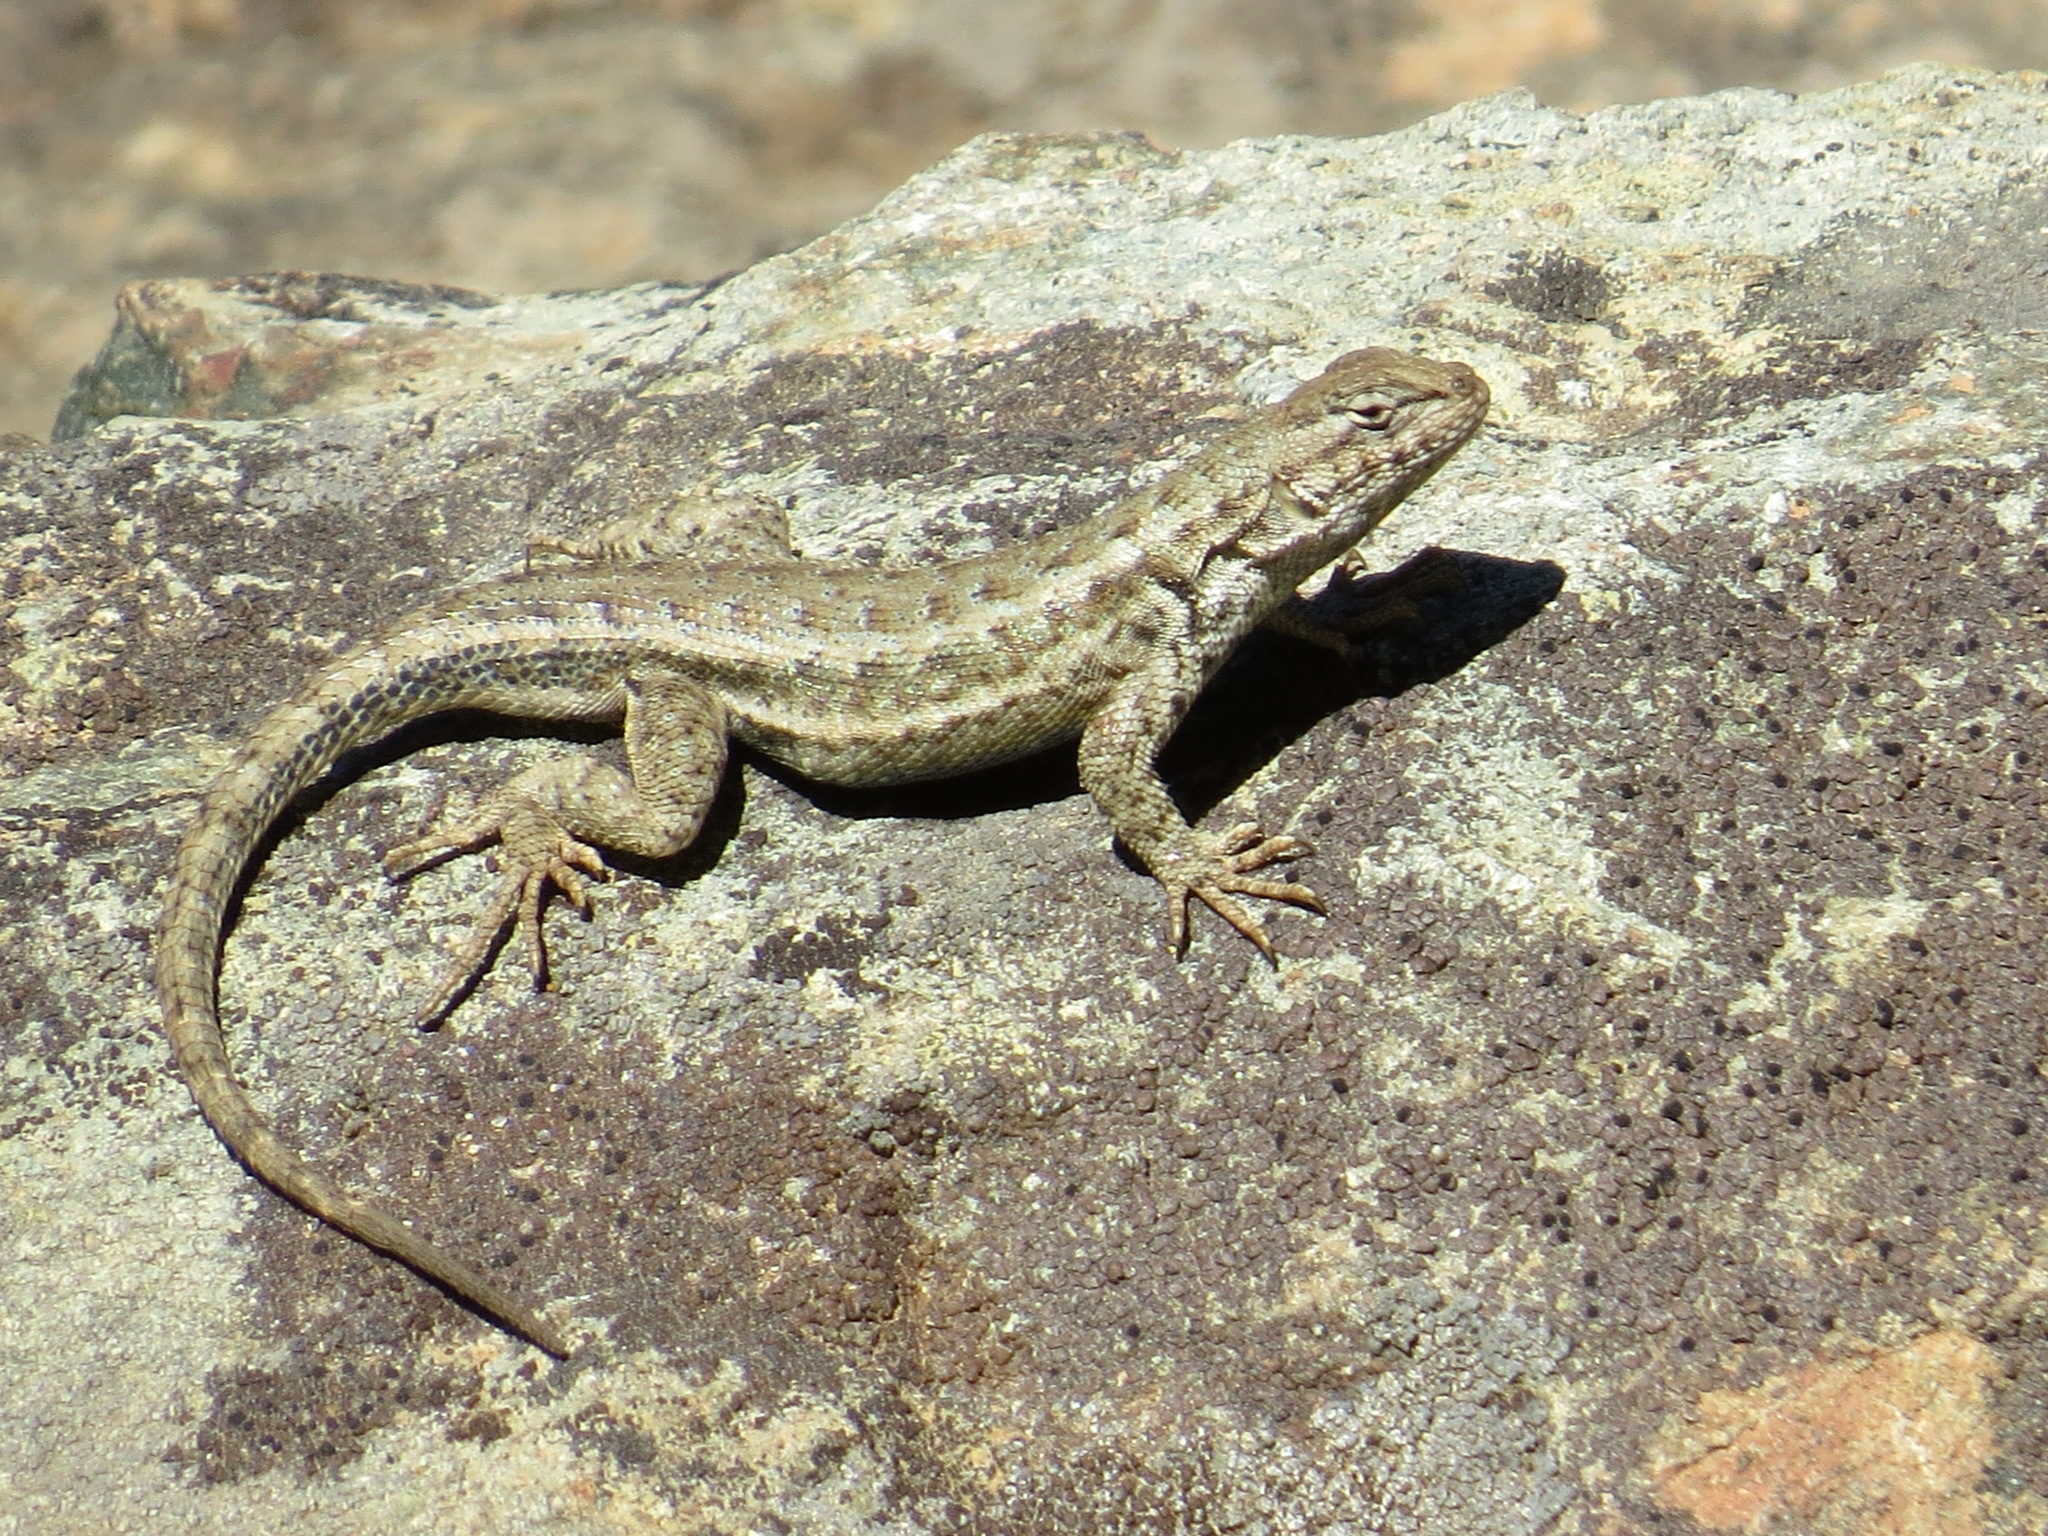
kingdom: Animalia
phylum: Chordata
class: Squamata
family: Phrynosomatidae
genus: Sceloporus
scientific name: Sceloporus graciosus
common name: Sagebrush lizard
